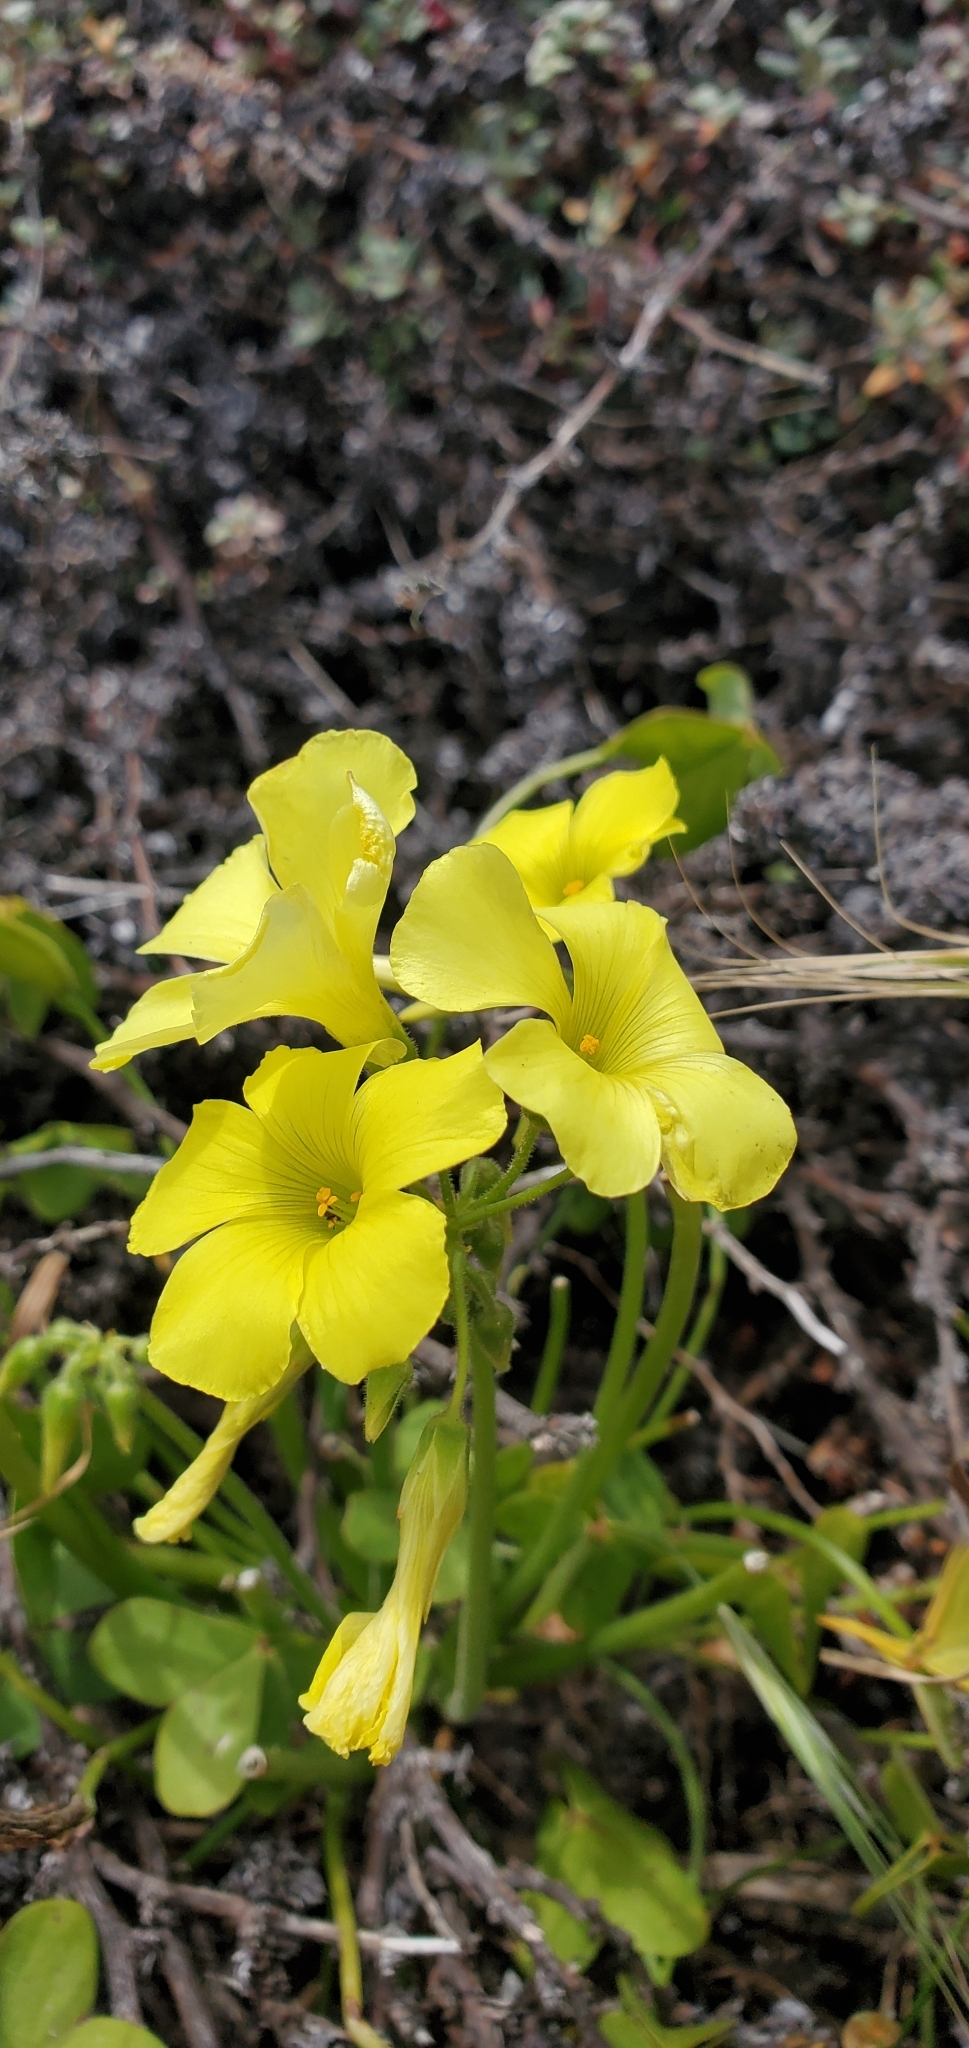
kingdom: Plantae
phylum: Tracheophyta
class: Magnoliopsida
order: Oxalidales
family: Oxalidaceae
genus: Oxalis
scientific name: Oxalis pes-caprae
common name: Bermuda-buttercup
